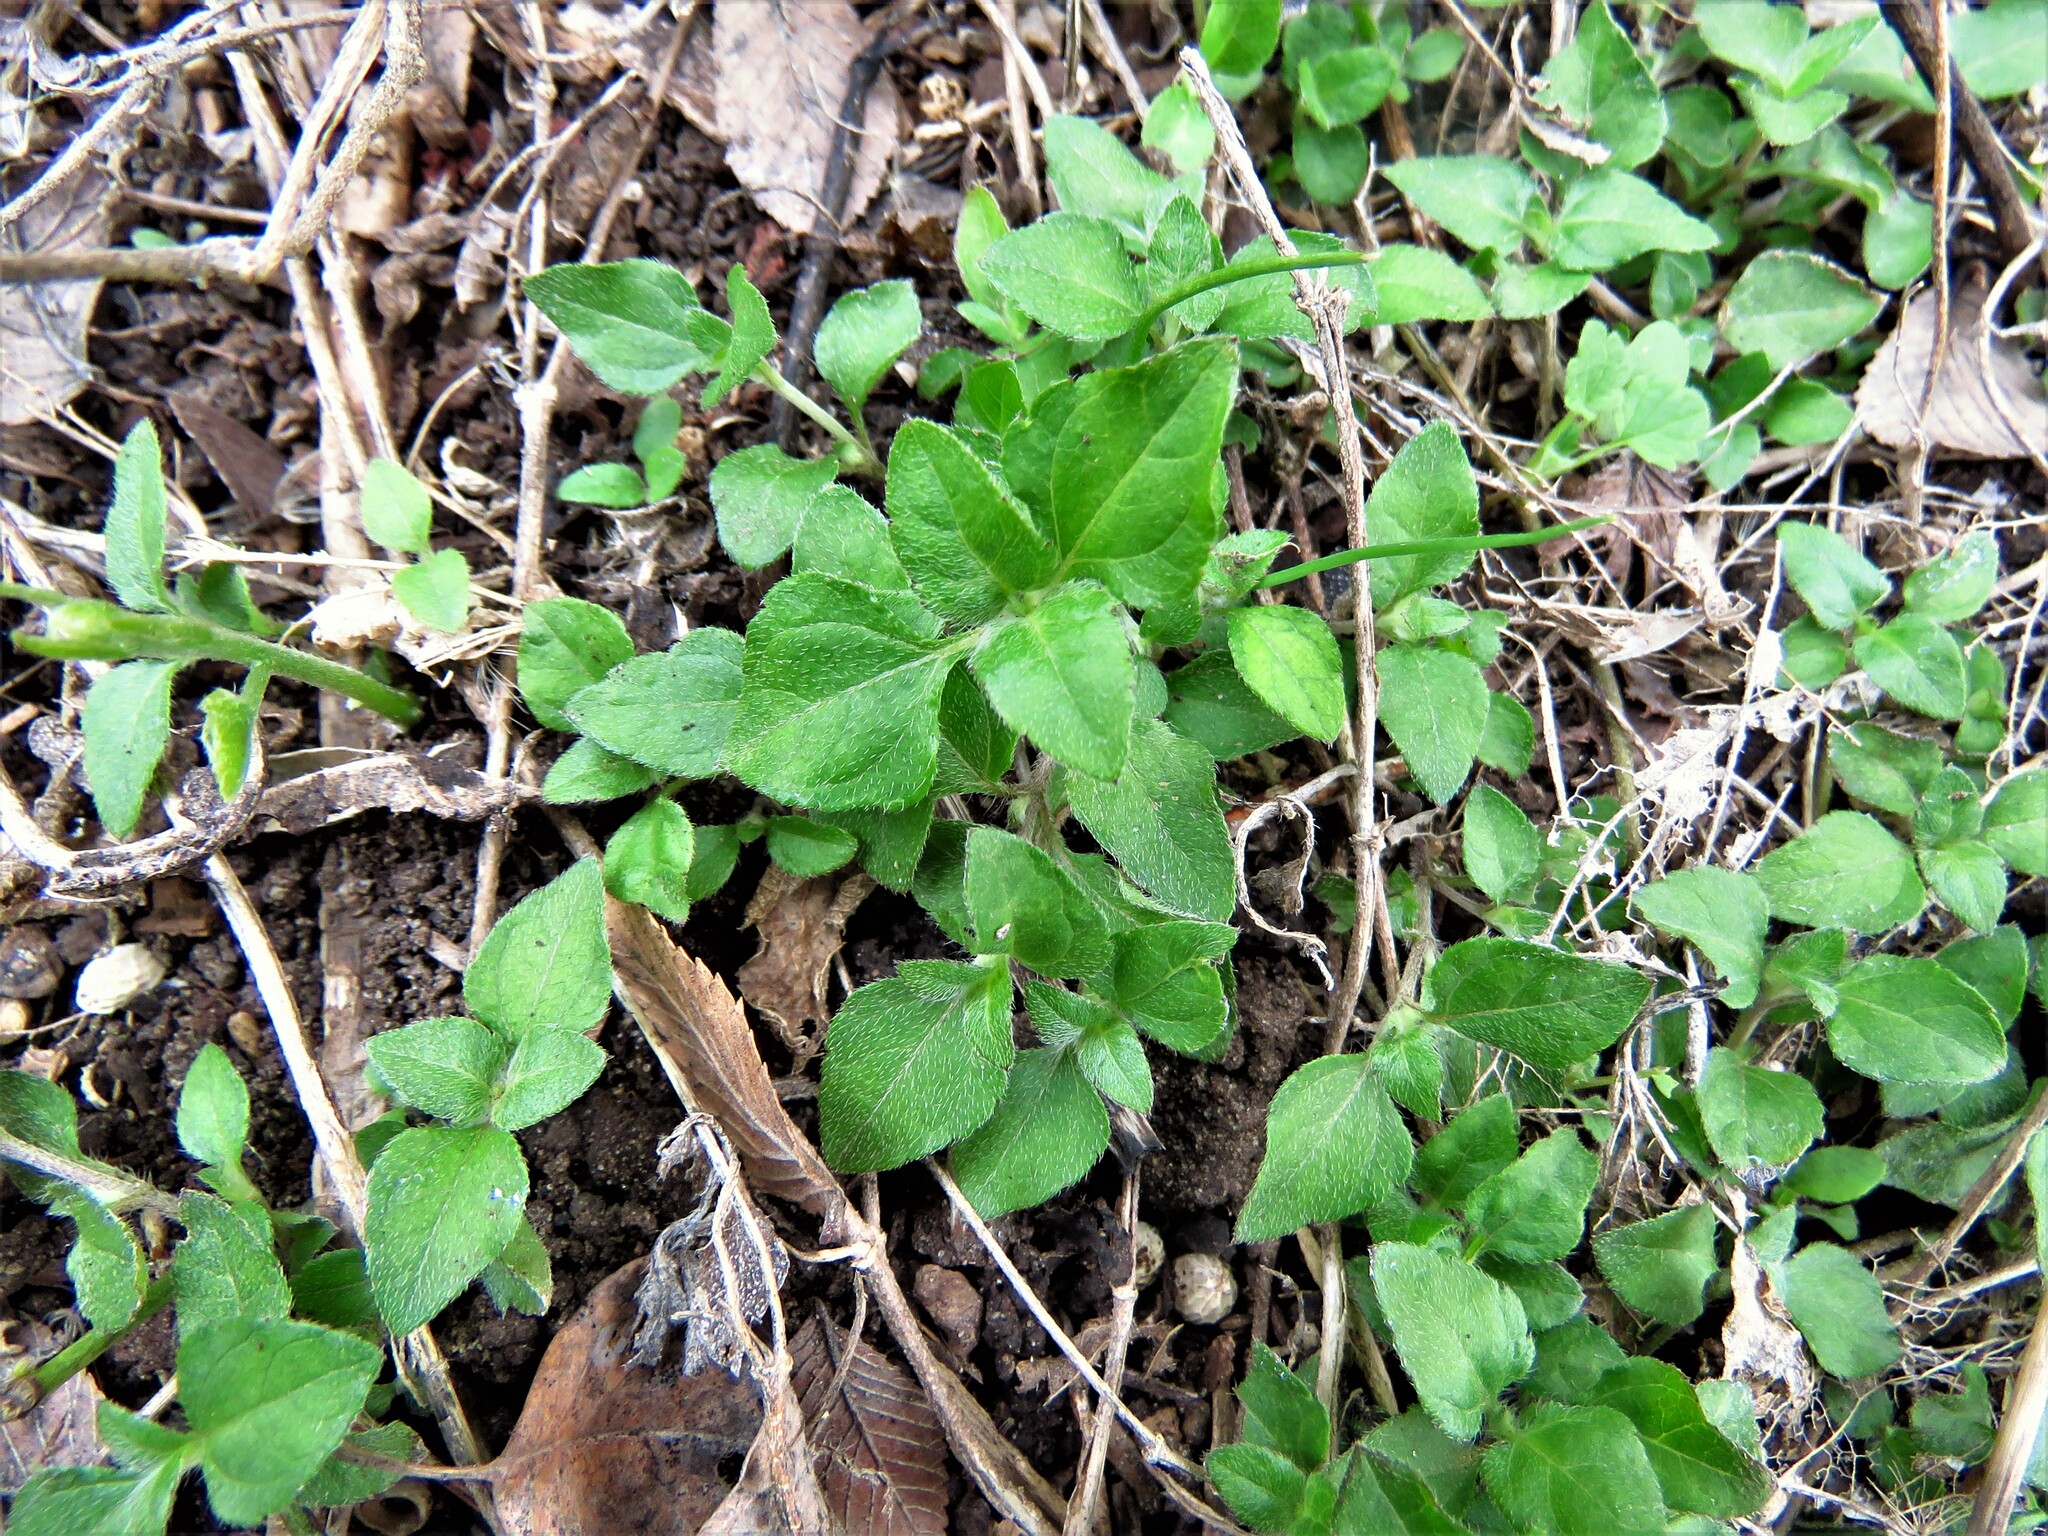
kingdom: Plantae
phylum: Tracheophyta
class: Magnoliopsida
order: Asterales
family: Asteraceae
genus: Calyptocarpus
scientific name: Calyptocarpus vialis
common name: Straggler daisy
